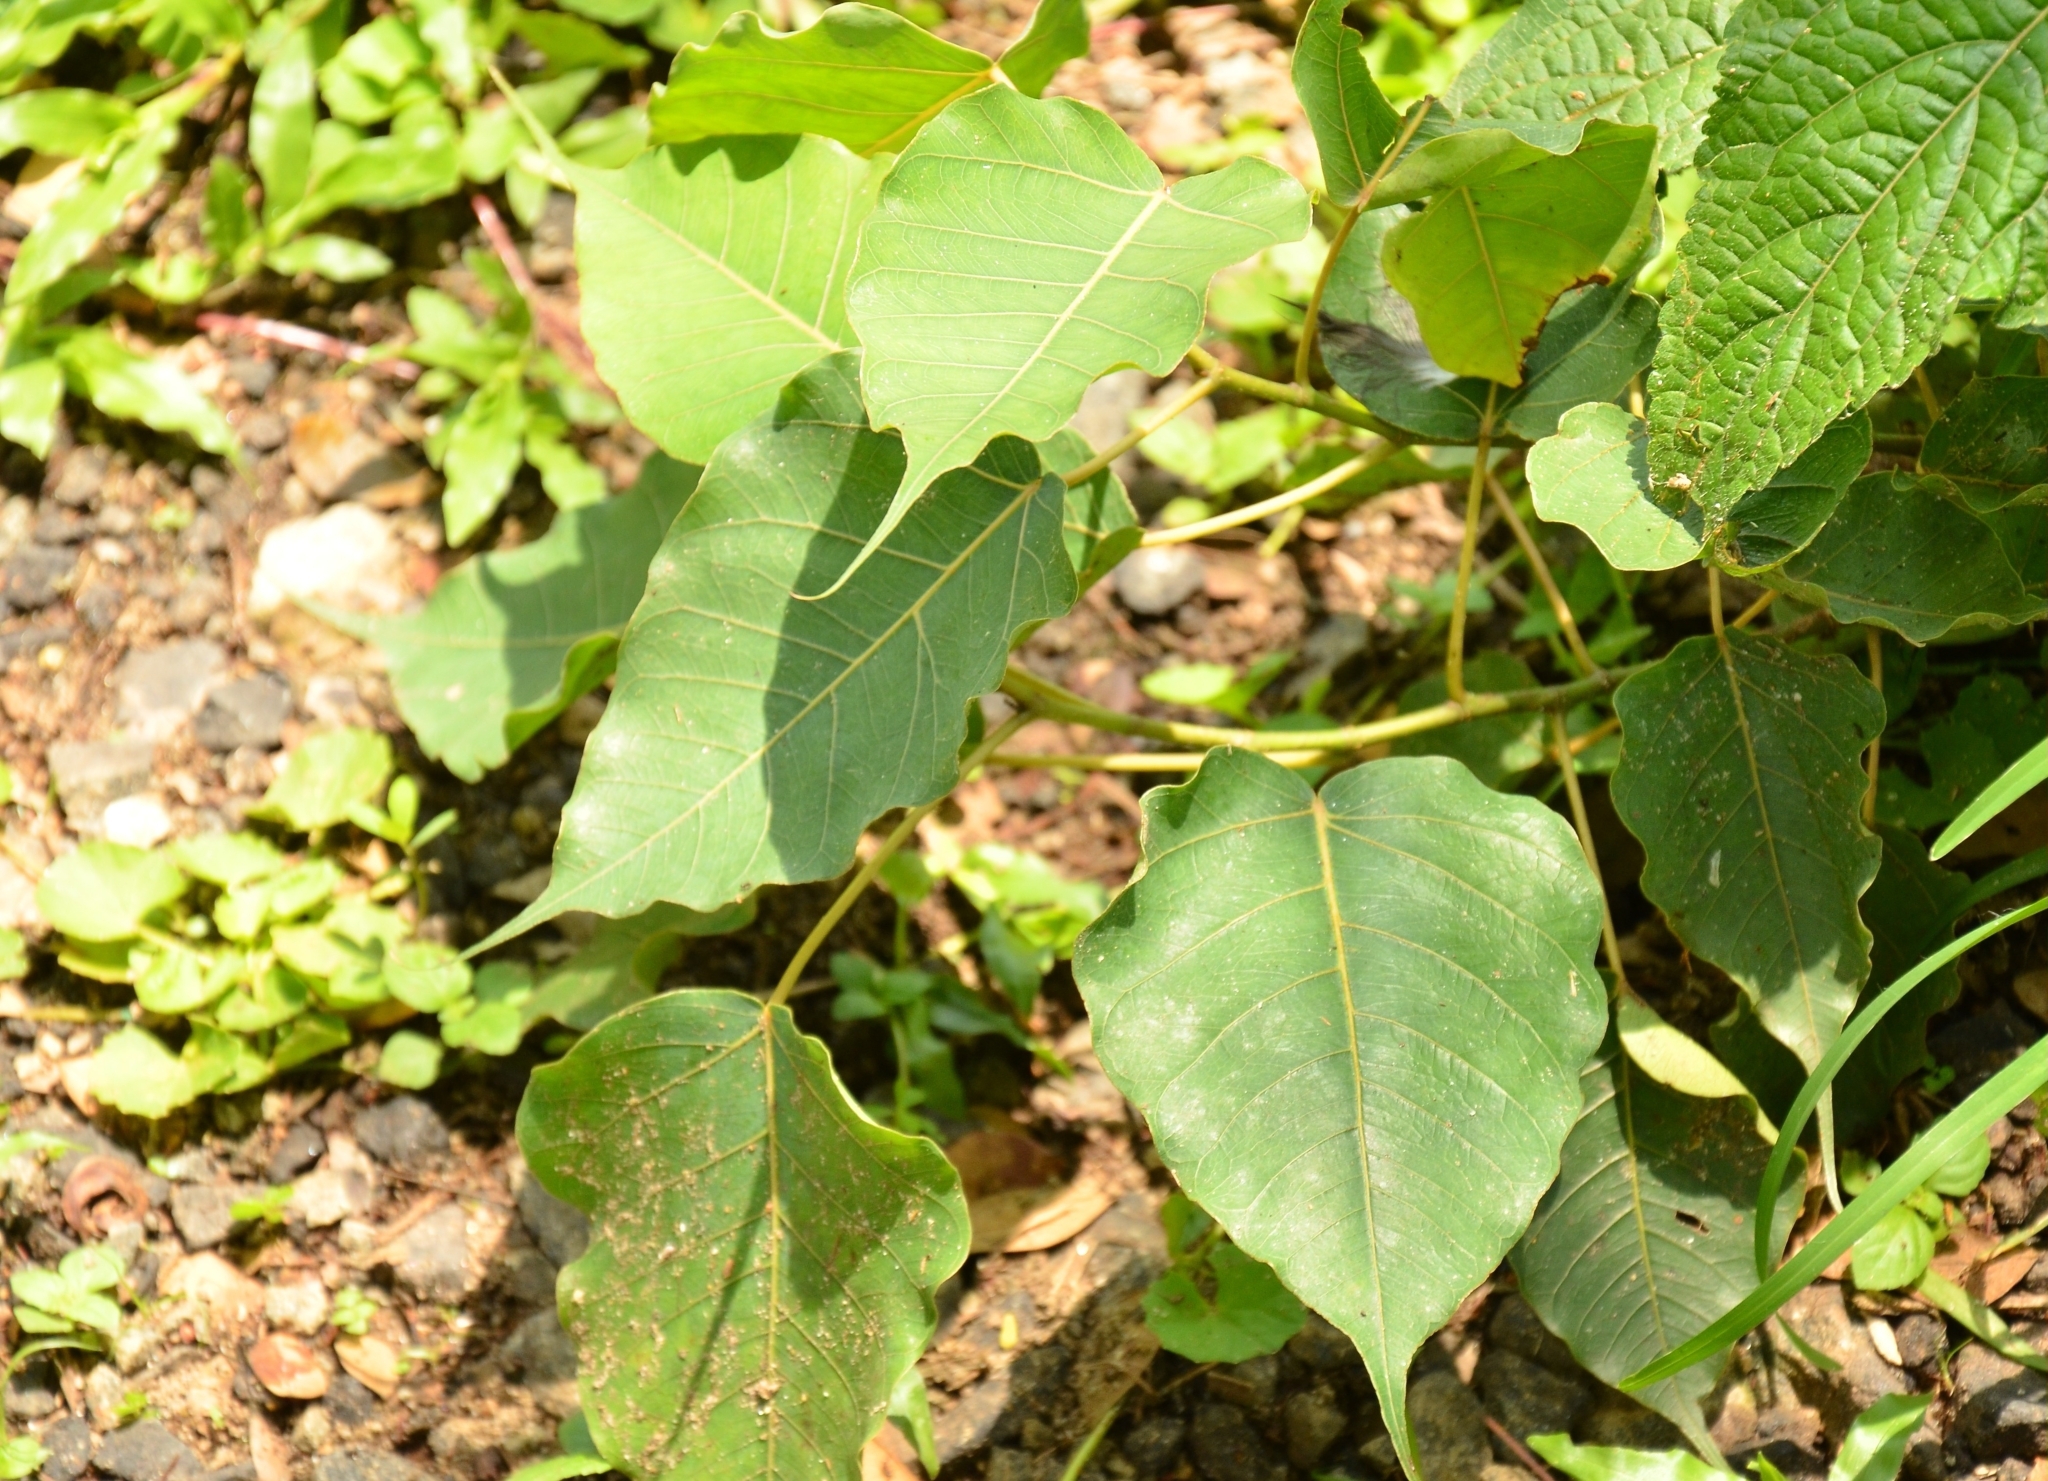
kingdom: Plantae
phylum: Tracheophyta
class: Magnoliopsida
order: Rosales
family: Moraceae
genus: Ficus
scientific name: Ficus religiosa
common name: Bodhi tree
